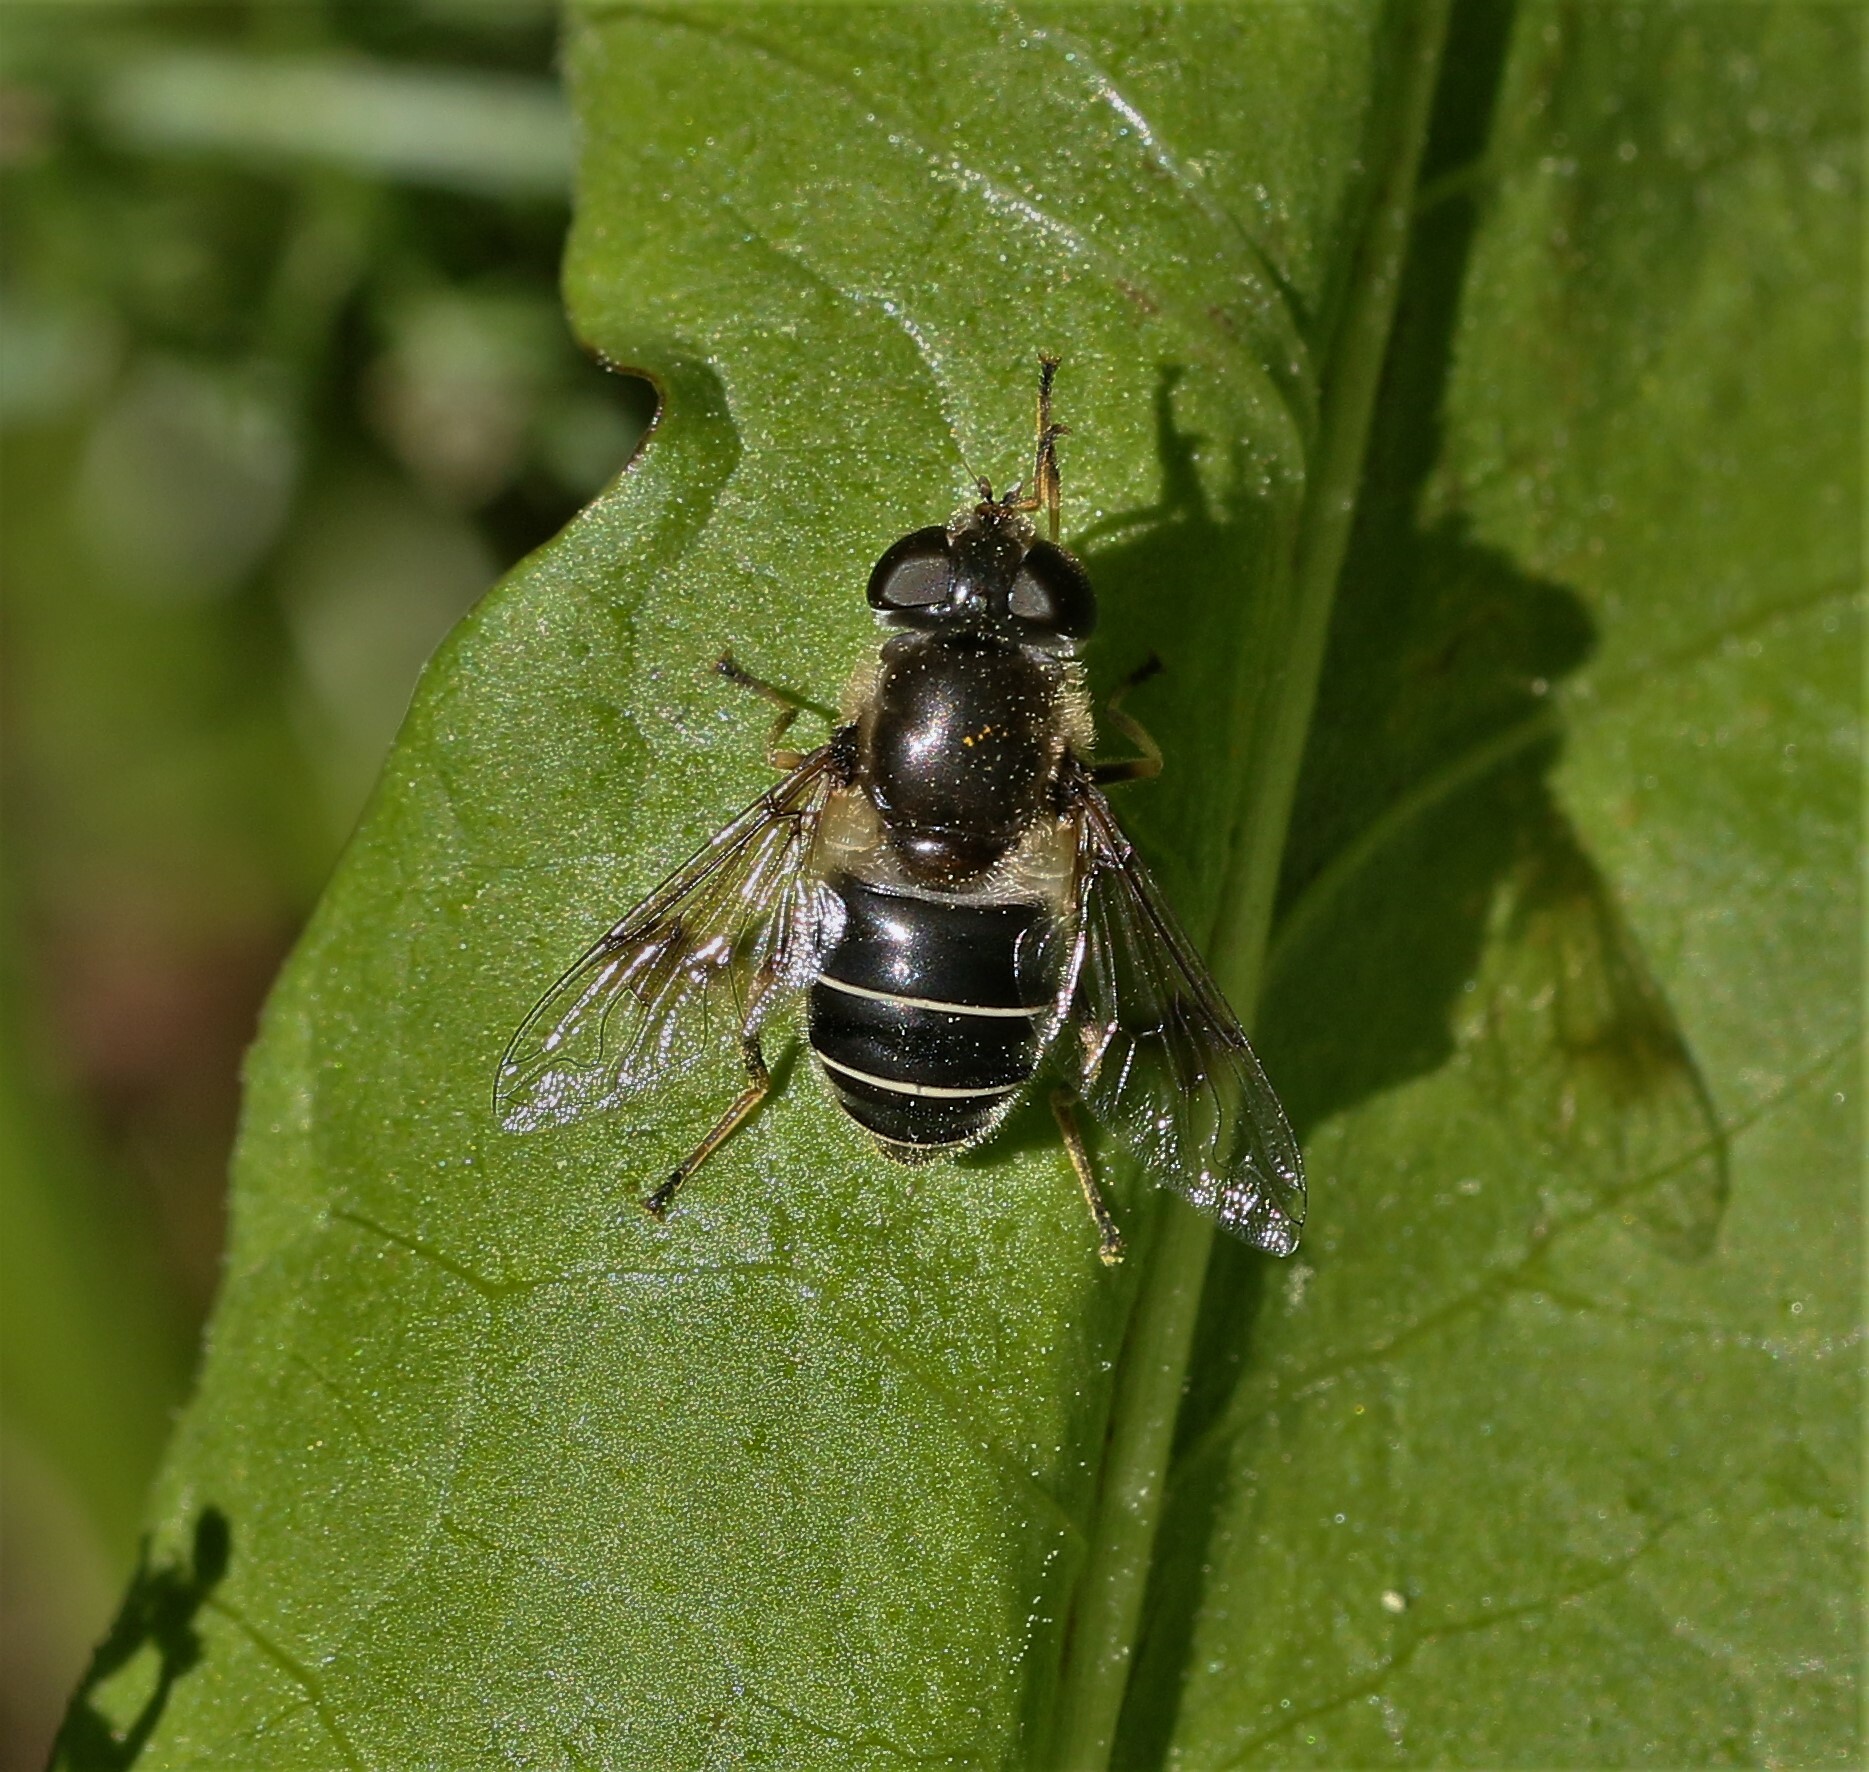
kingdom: Animalia
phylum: Arthropoda
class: Insecta
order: Diptera
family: Syrphidae
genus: Eristalis
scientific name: Eristalis obscura
